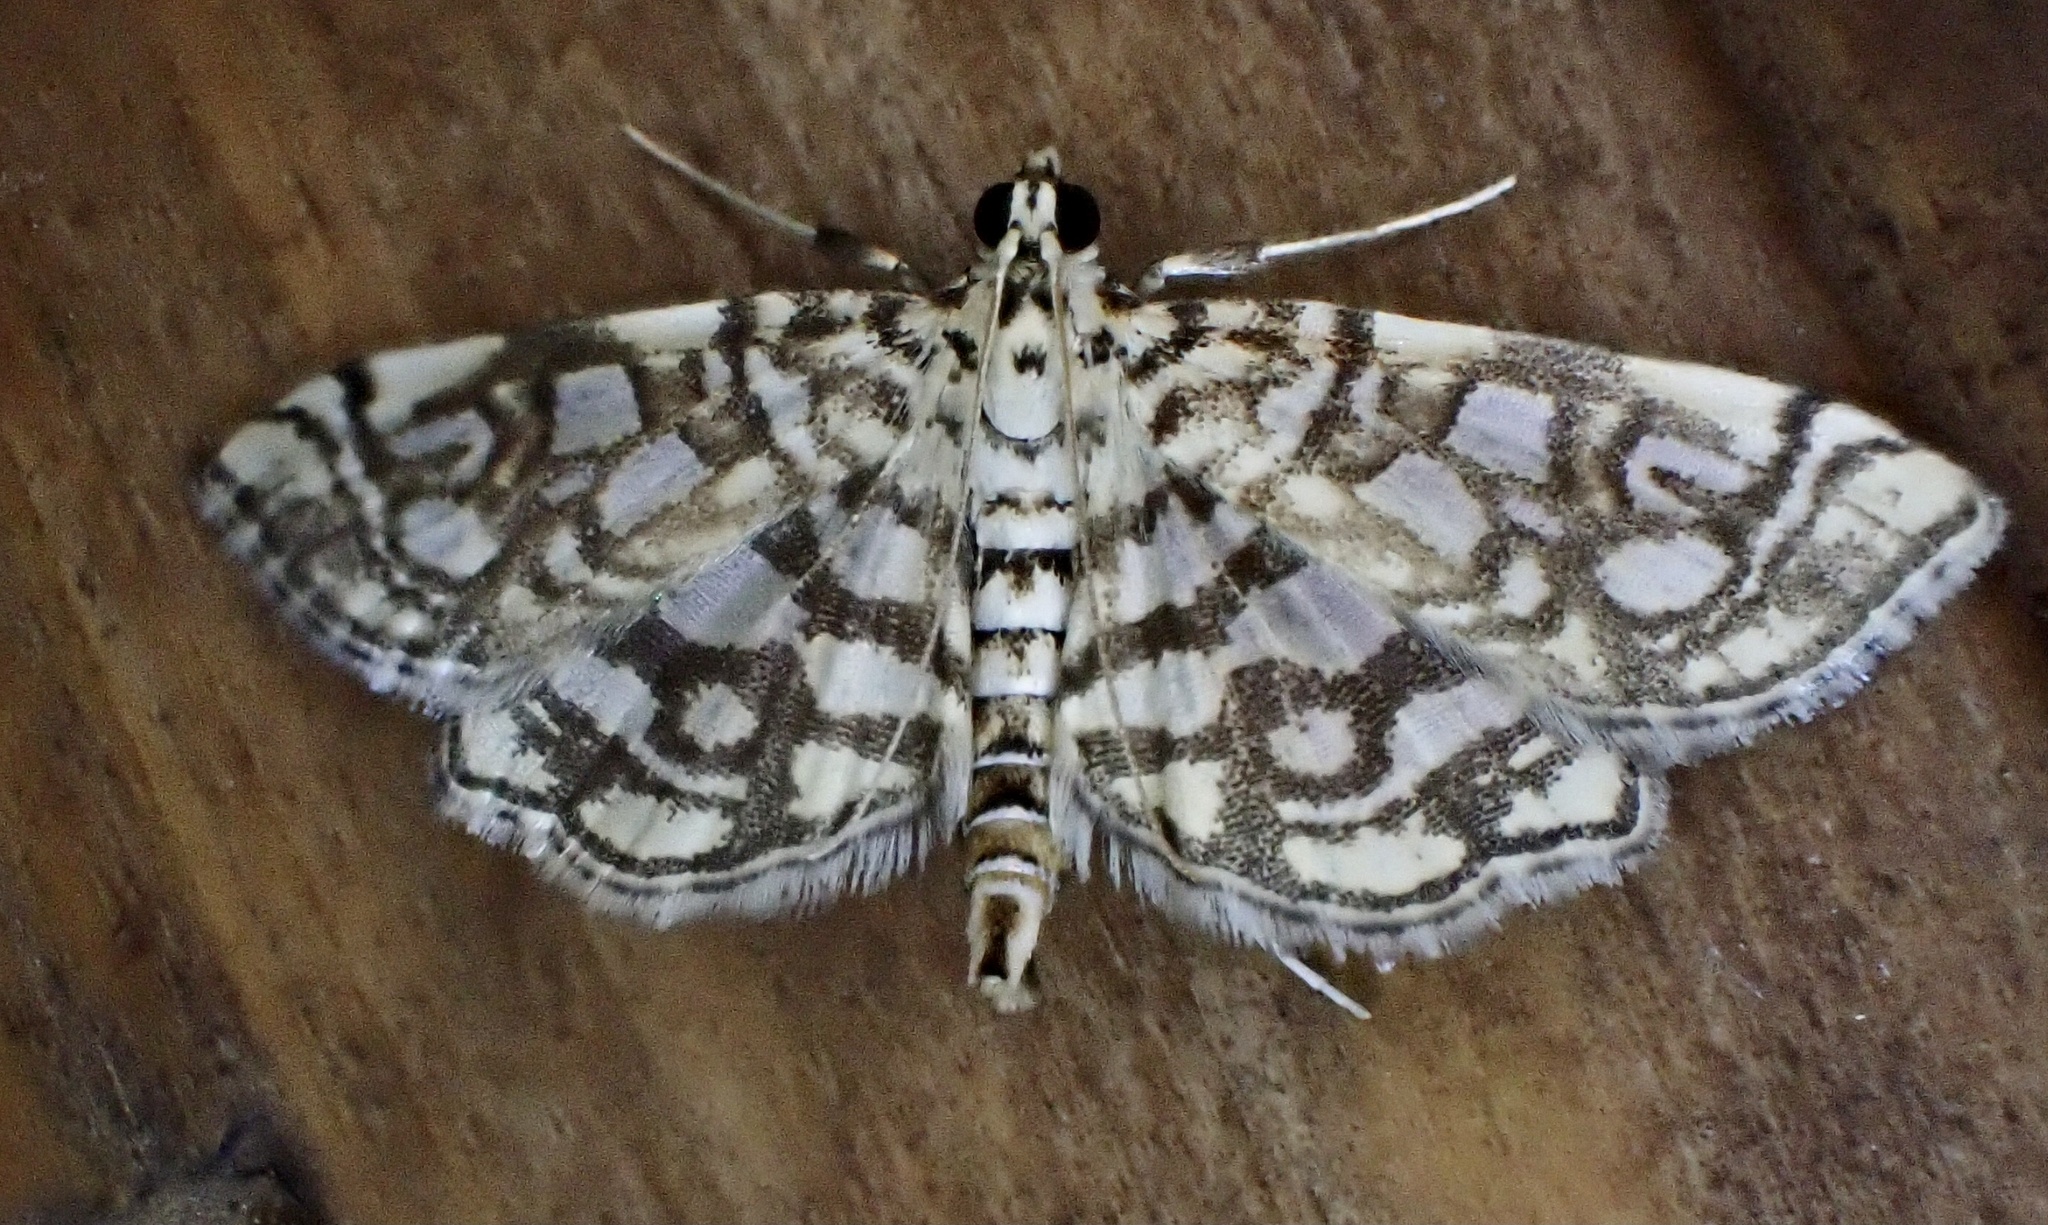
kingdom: Animalia
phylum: Arthropoda
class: Insecta
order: Lepidoptera
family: Crambidae
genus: Lygropia
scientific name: Lygropia rivulalis
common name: Bog lygropia moth
